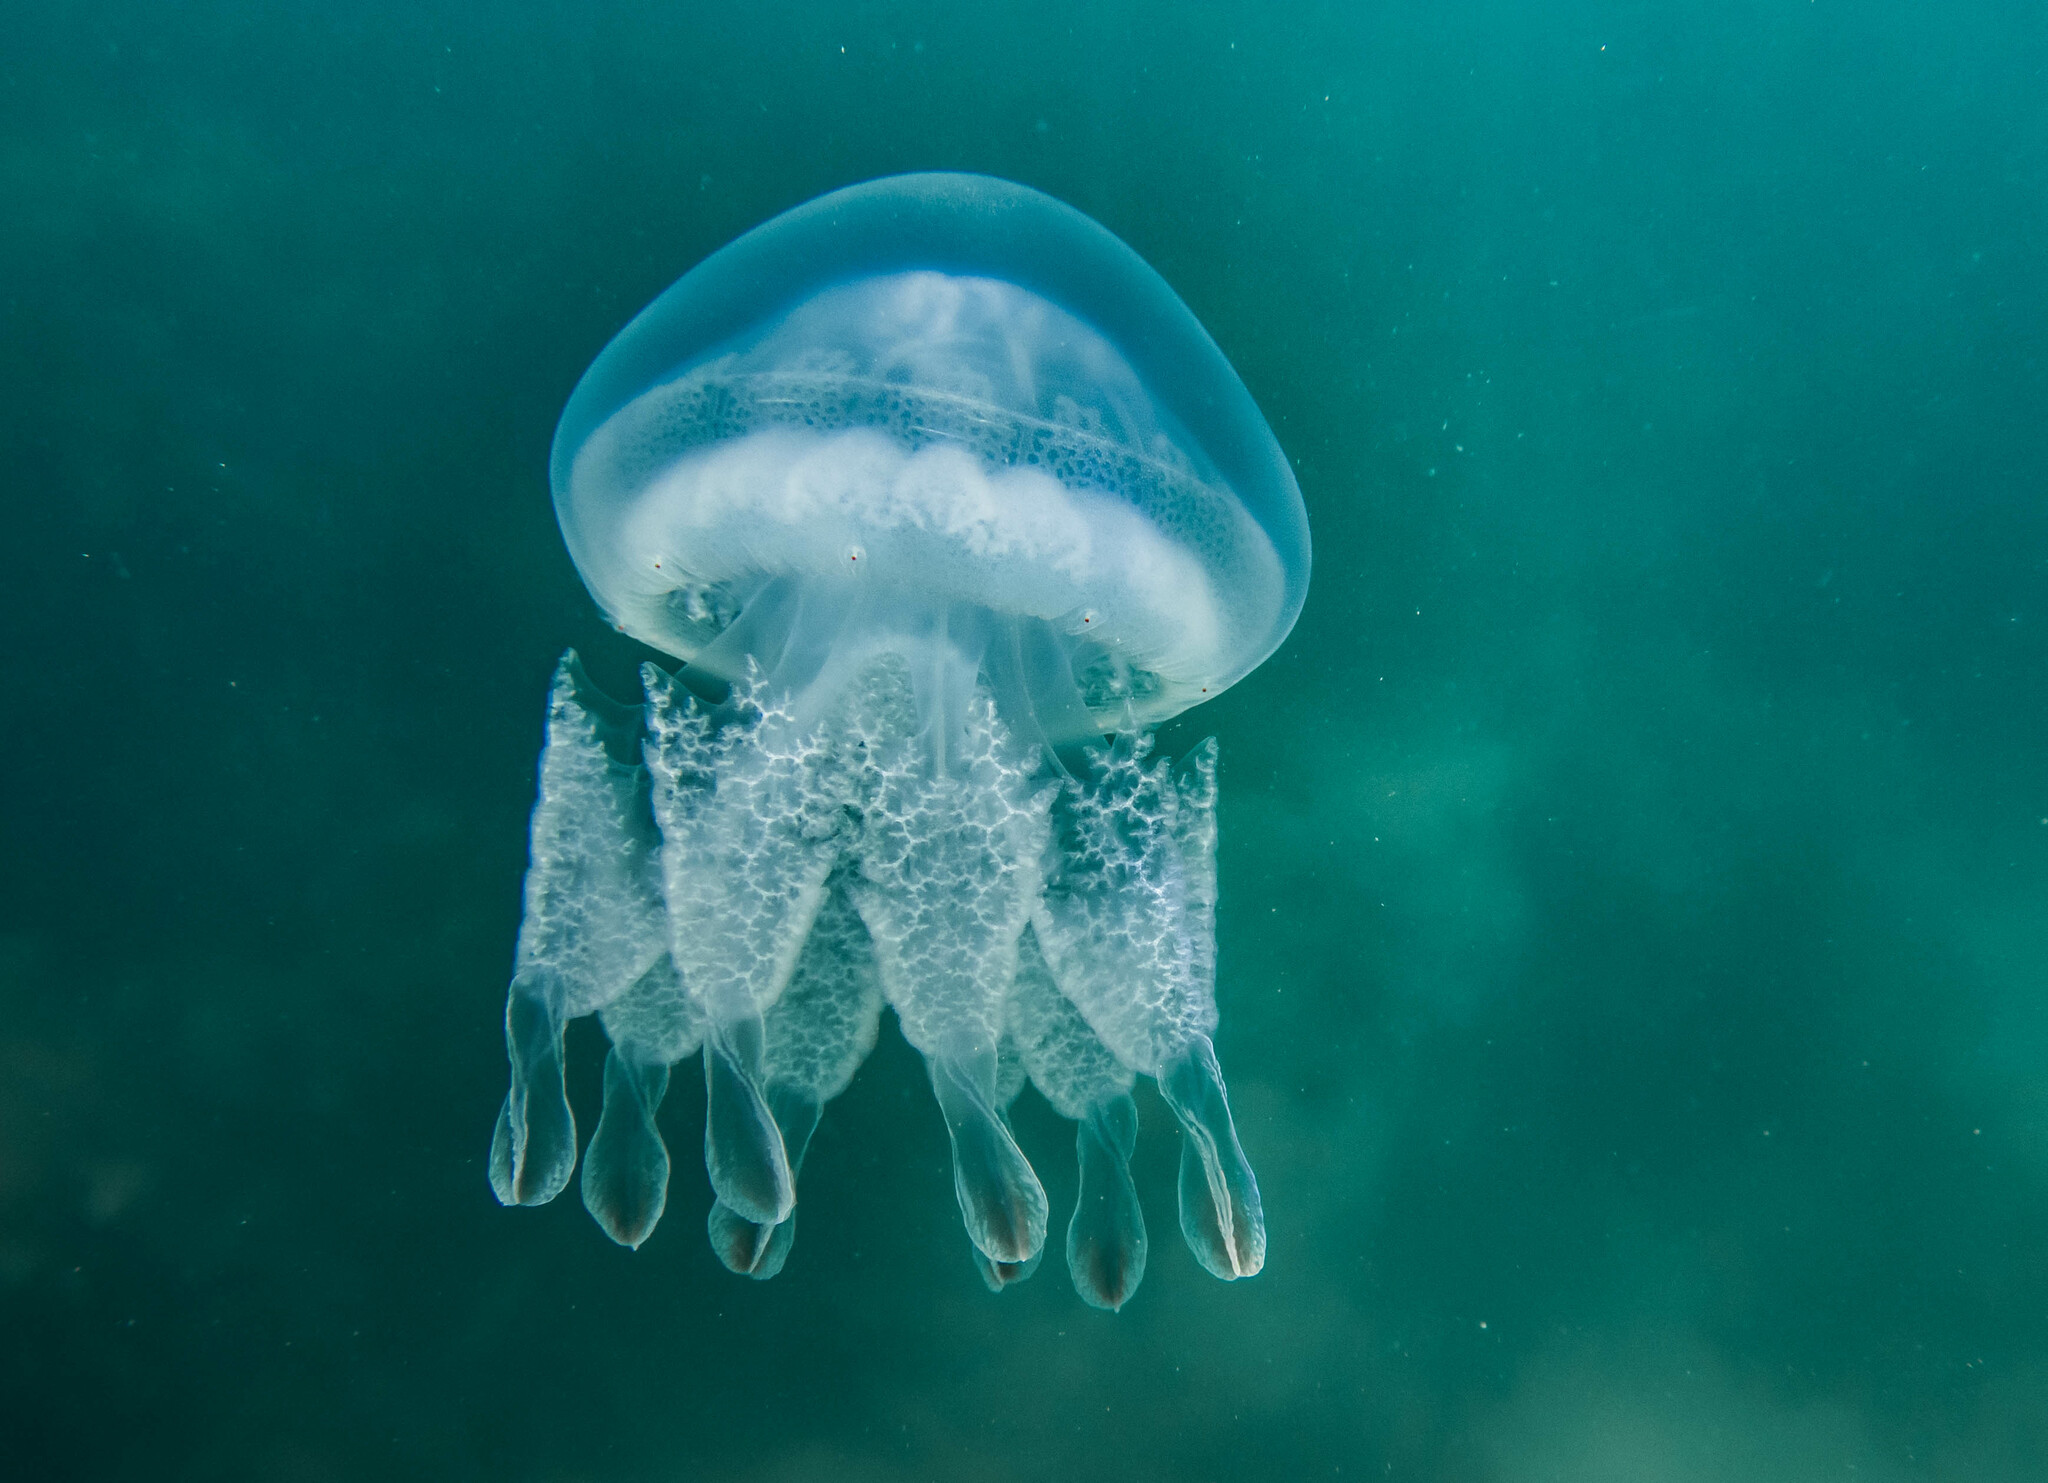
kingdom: Animalia
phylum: Cnidaria
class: Scyphozoa
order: Rhizostomeae
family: Rhizostomatidae
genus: Rhizostoma
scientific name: Rhizostoma octopus
